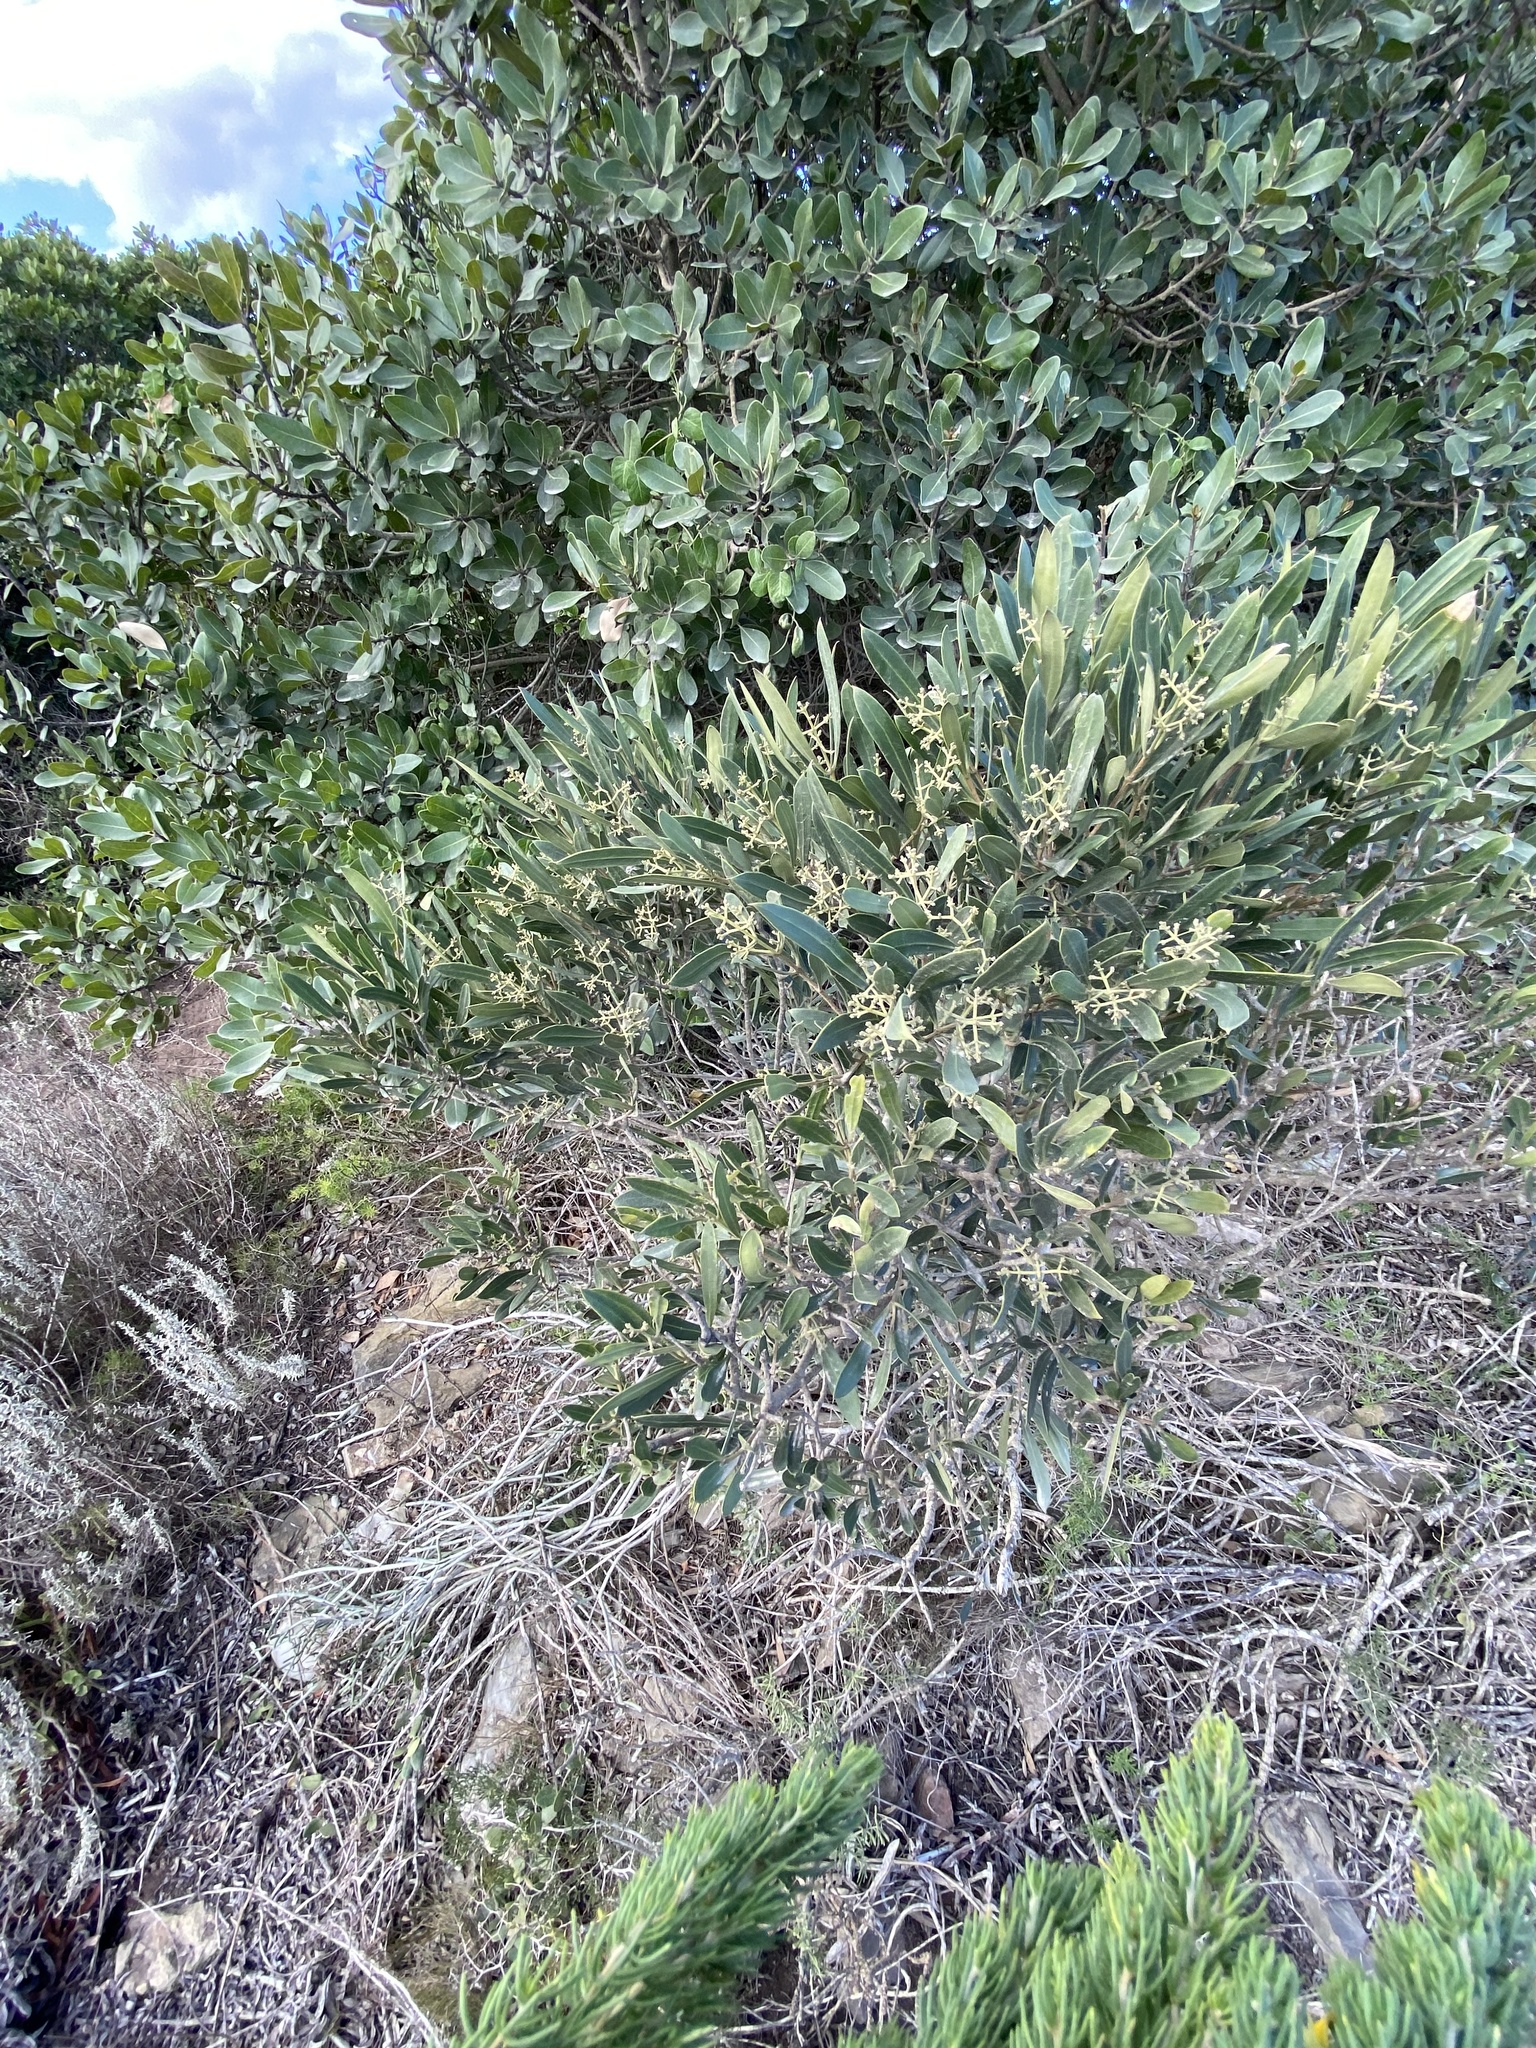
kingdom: Plantae
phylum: Tracheophyta
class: Magnoliopsida
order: Lamiales
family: Oleaceae
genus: Olea
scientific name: Olea exasperata
